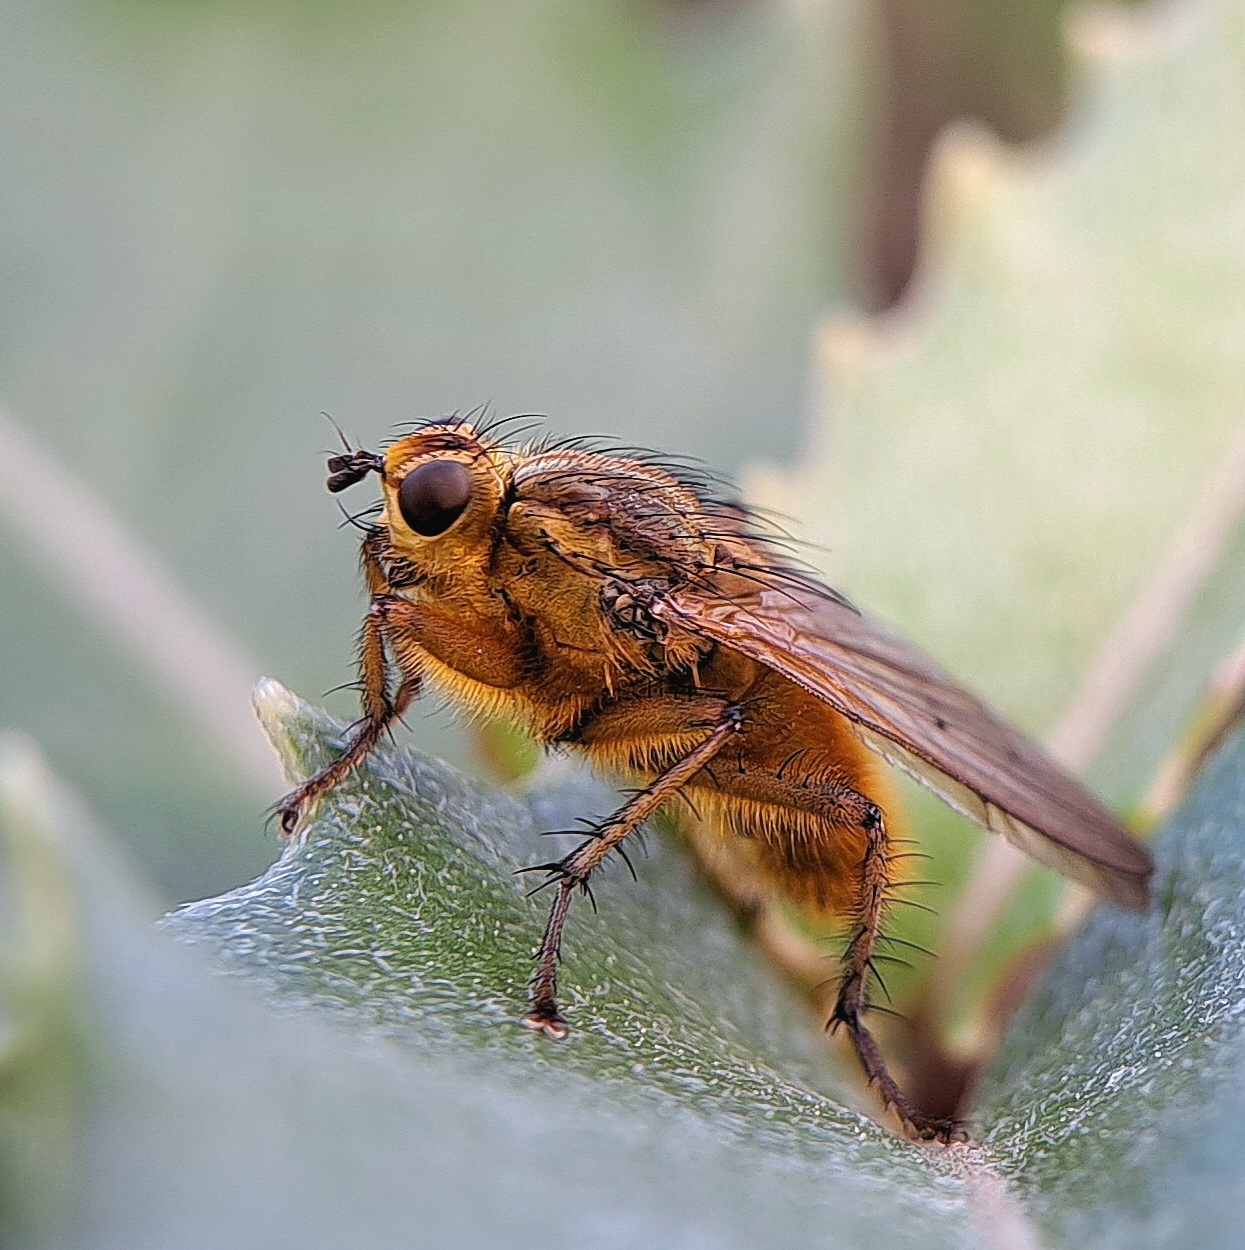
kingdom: Animalia
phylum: Arthropoda
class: Insecta
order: Diptera
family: Scathophagidae
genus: Scathophaga
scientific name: Scathophaga stercoraria
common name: Yellow dung fly
